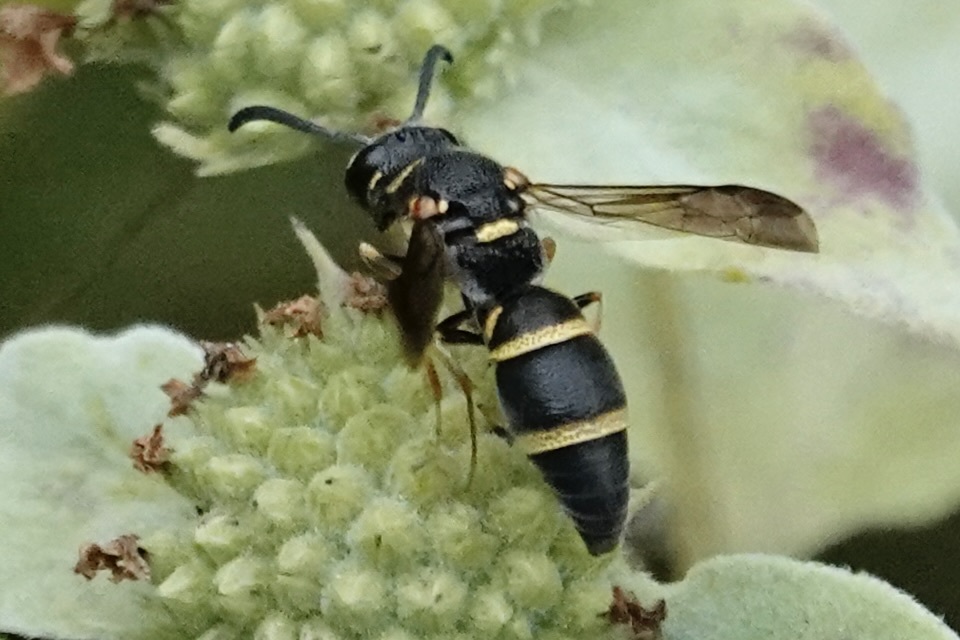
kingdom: Animalia
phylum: Arthropoda
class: Insecta
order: Hymenoptera
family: Eumenidae
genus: Parancistrocerus
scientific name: Parancistrocerus fulvipes
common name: Potter wasp
